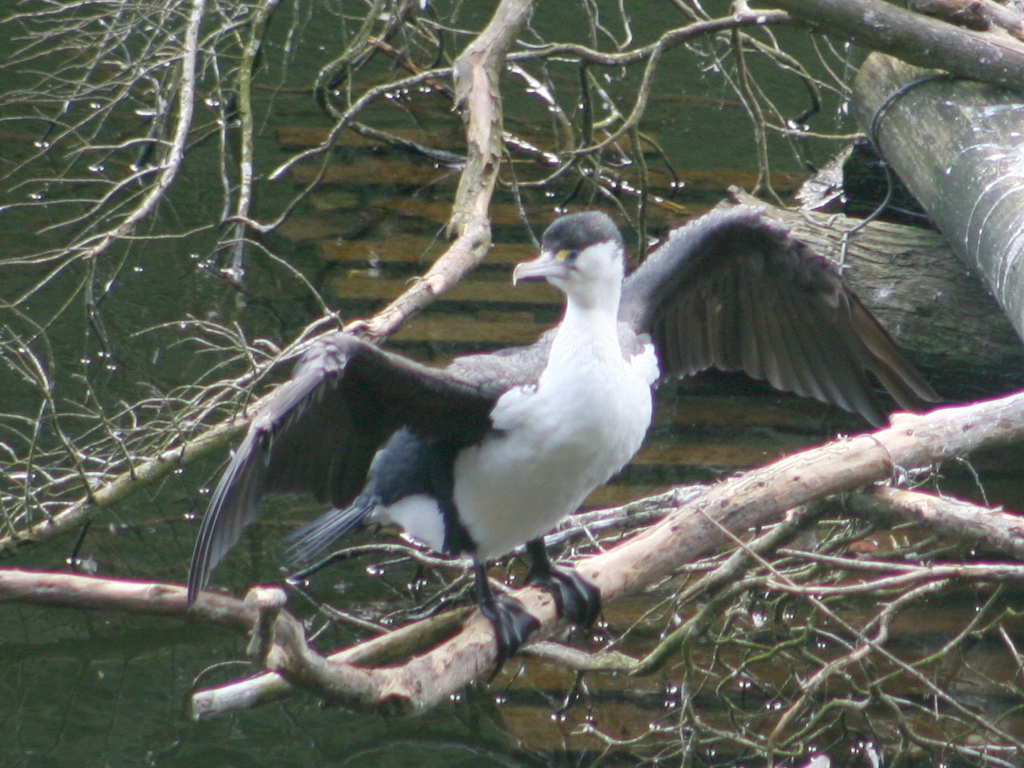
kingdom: Animalia
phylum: Chordata
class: Aves
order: Suliformes
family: Phalacrocoracidae
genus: Phalacrocorax
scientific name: Phalacrocorax varius
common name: Pied cormorant
